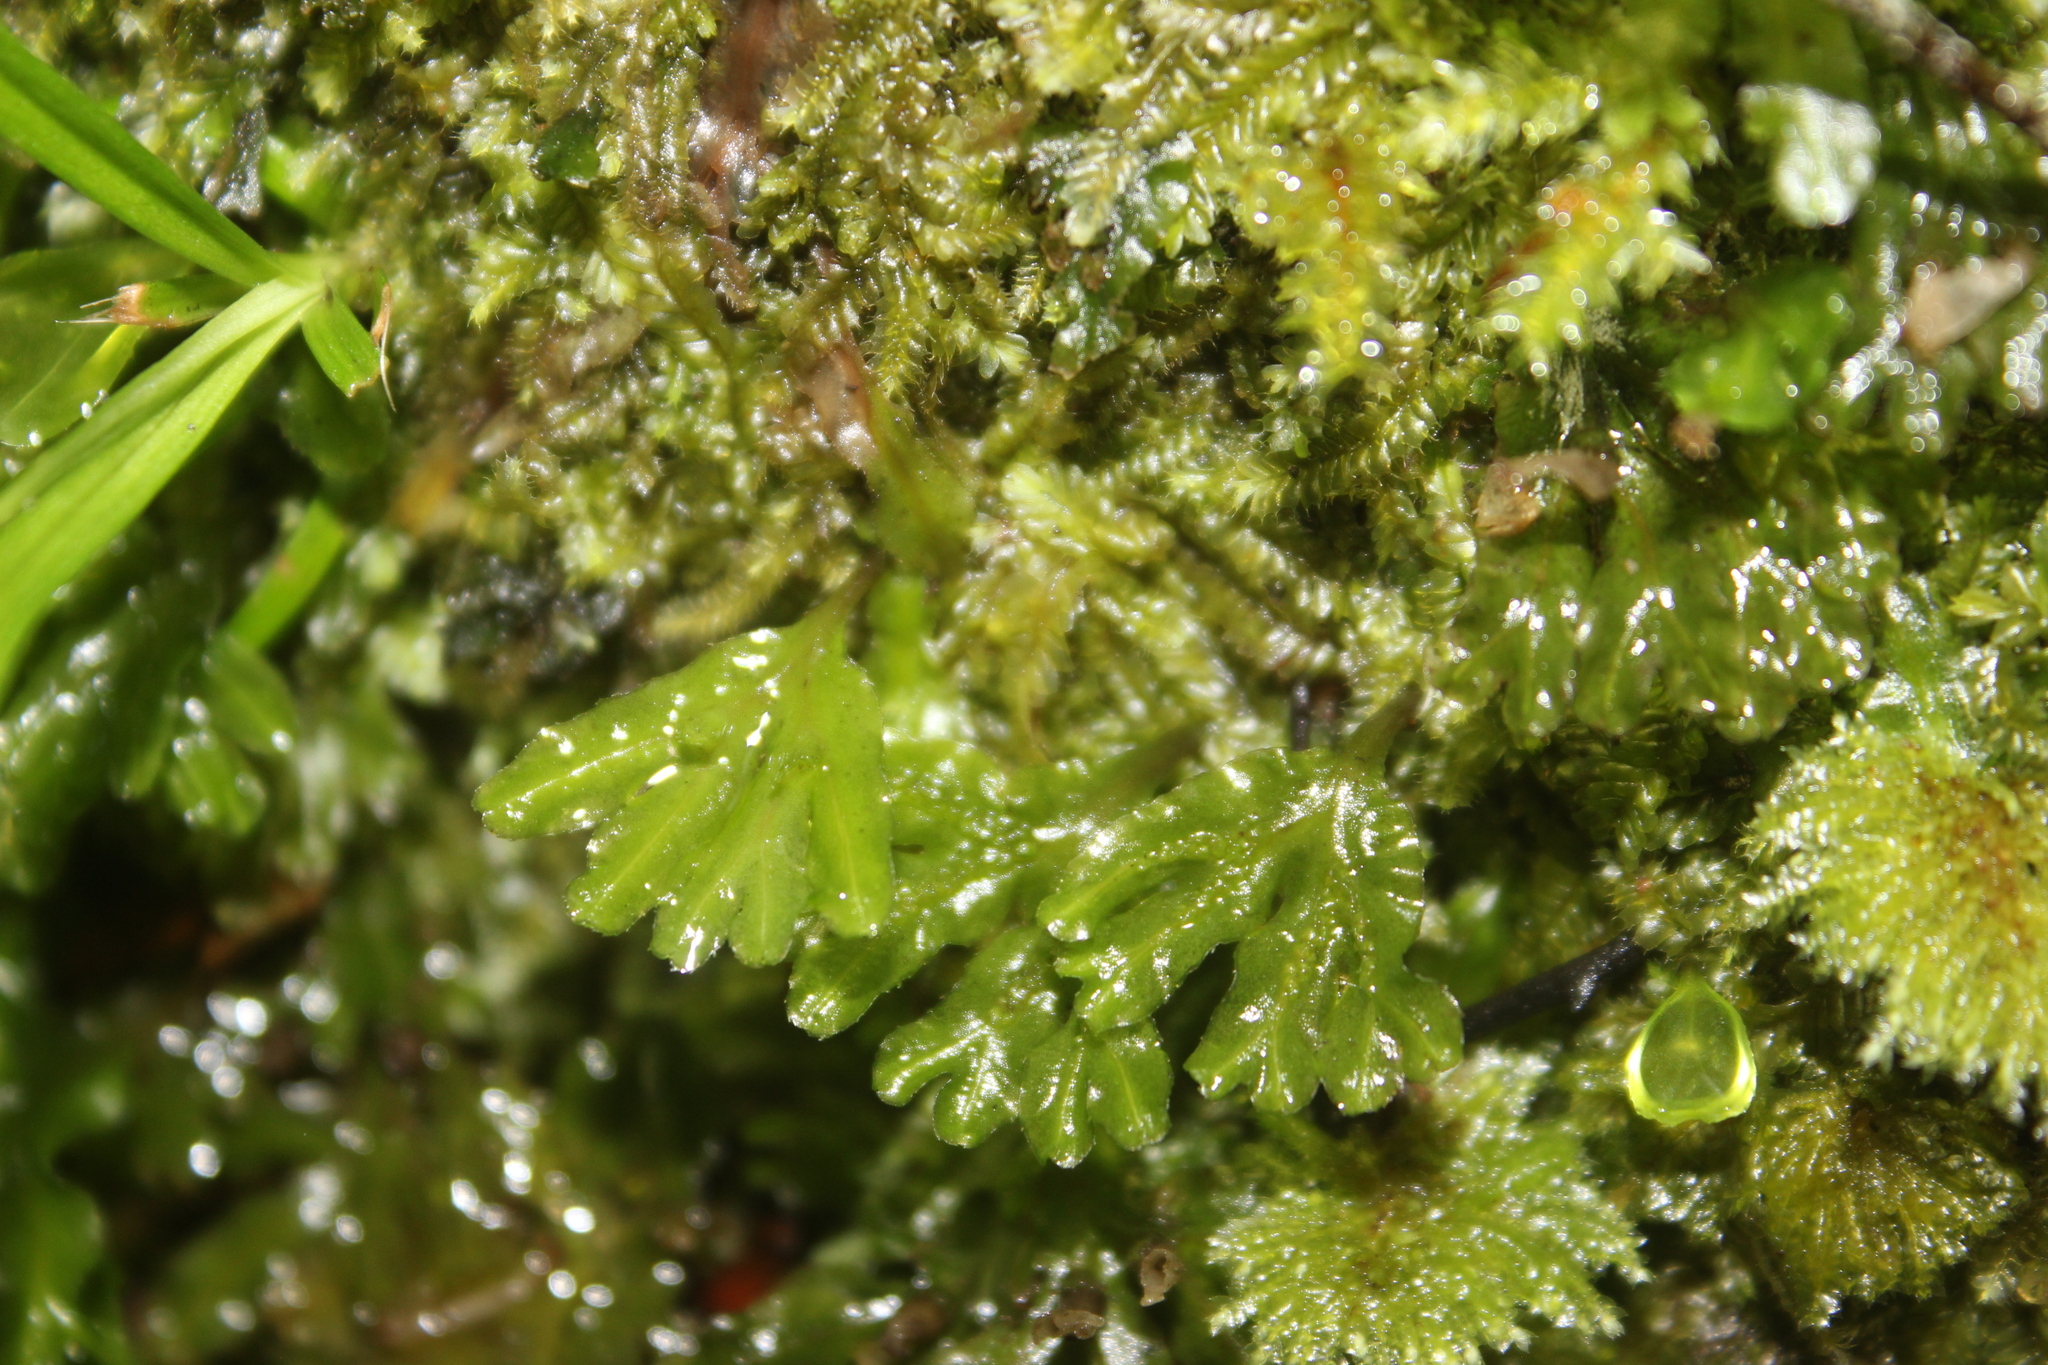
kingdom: Plantae
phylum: Marchantiophyta
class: Jungermanniopsida
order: Pallaviciniales
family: Pallaviciniaceae
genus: Symphyogyna
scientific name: Symphyogyna hymenophyllum
